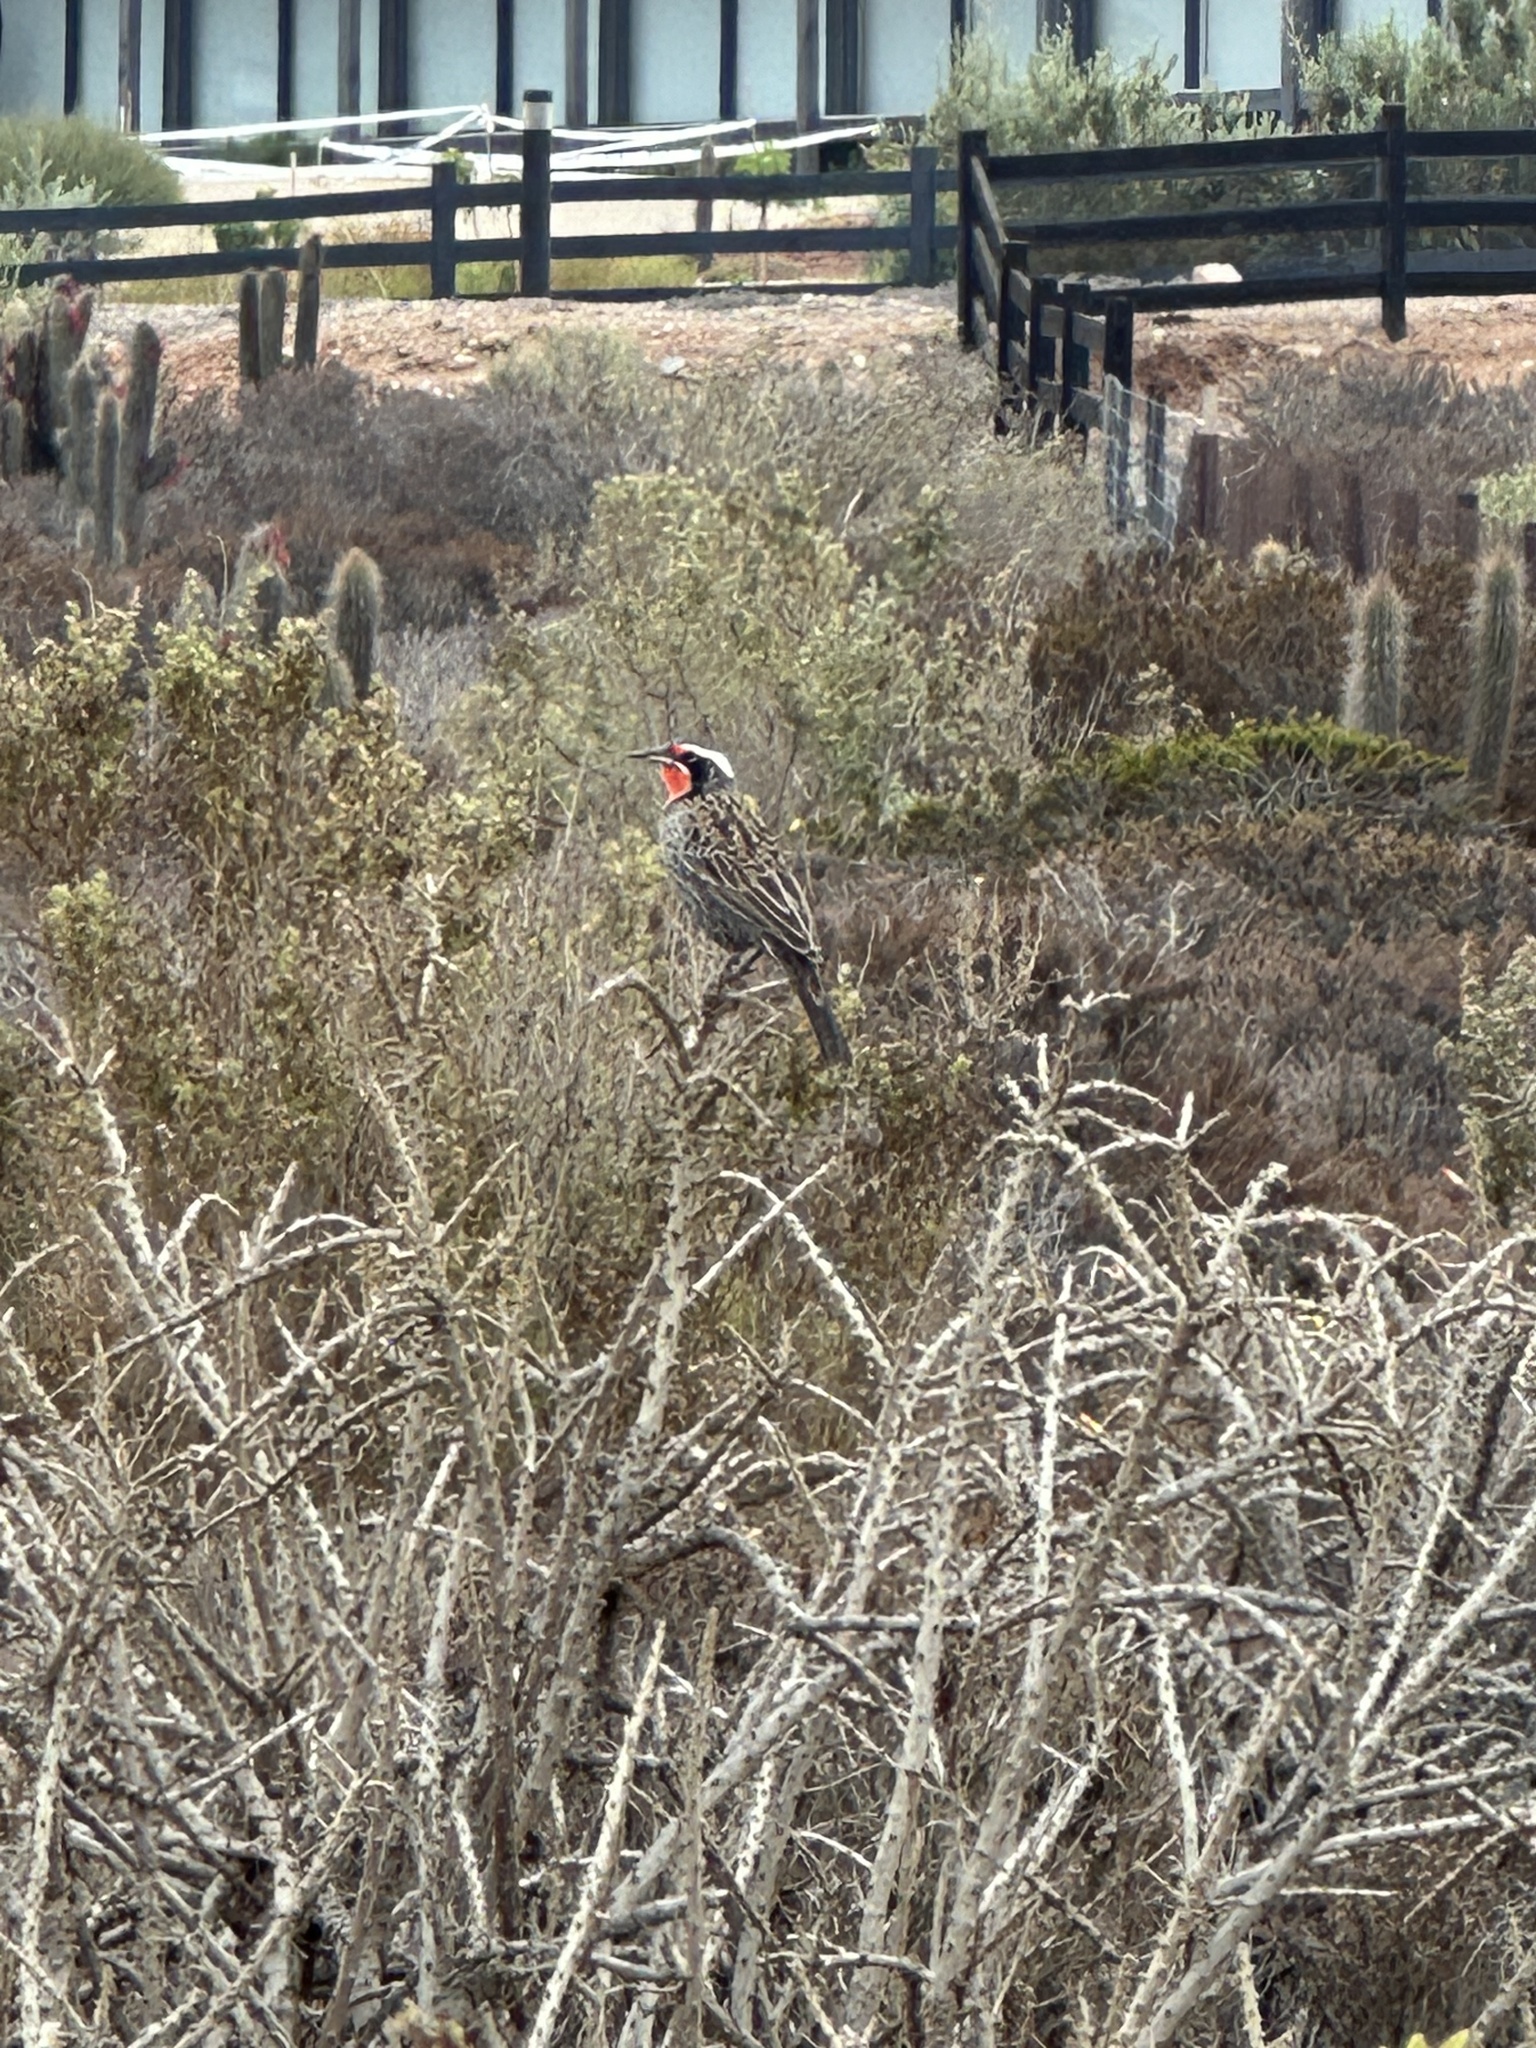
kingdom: Animalia
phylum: Chordata
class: Aves
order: Passeriformes
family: Icteridae
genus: Sturnella
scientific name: Sturnella loyca
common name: Long-tailed meadowlark
